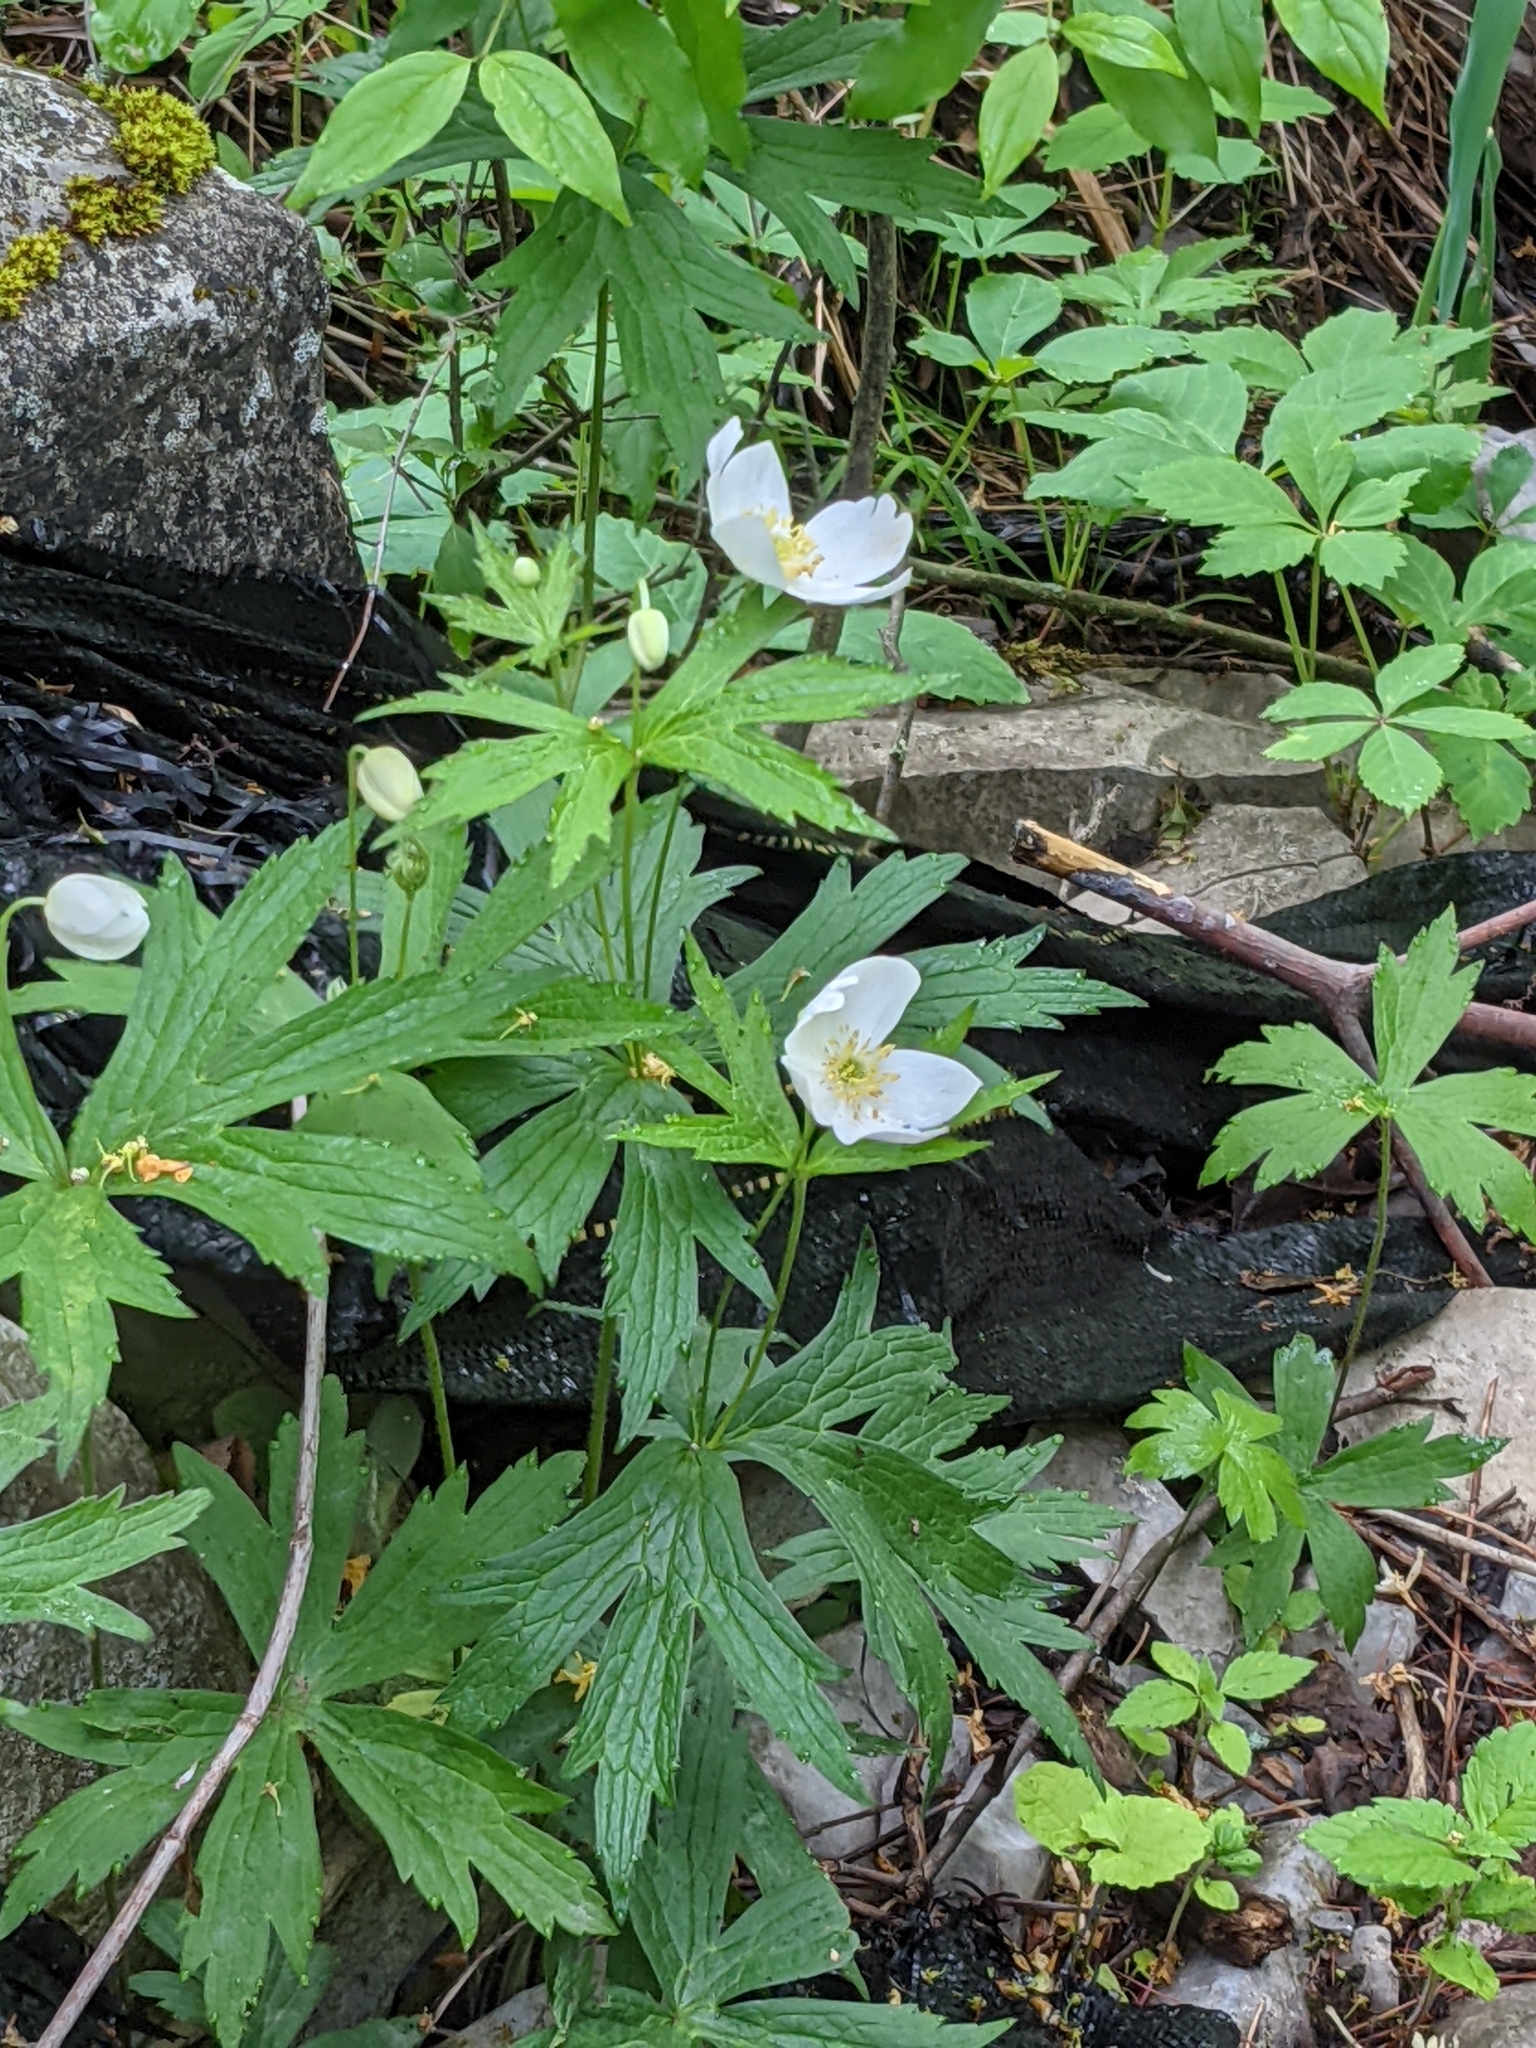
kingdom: Plantae
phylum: Tracheophyta
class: Magnoliopsida
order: Ranunculales
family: Ranunculaceae
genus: Anemonastrum
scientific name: Anemonastrum canadense
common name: Canada anemone
